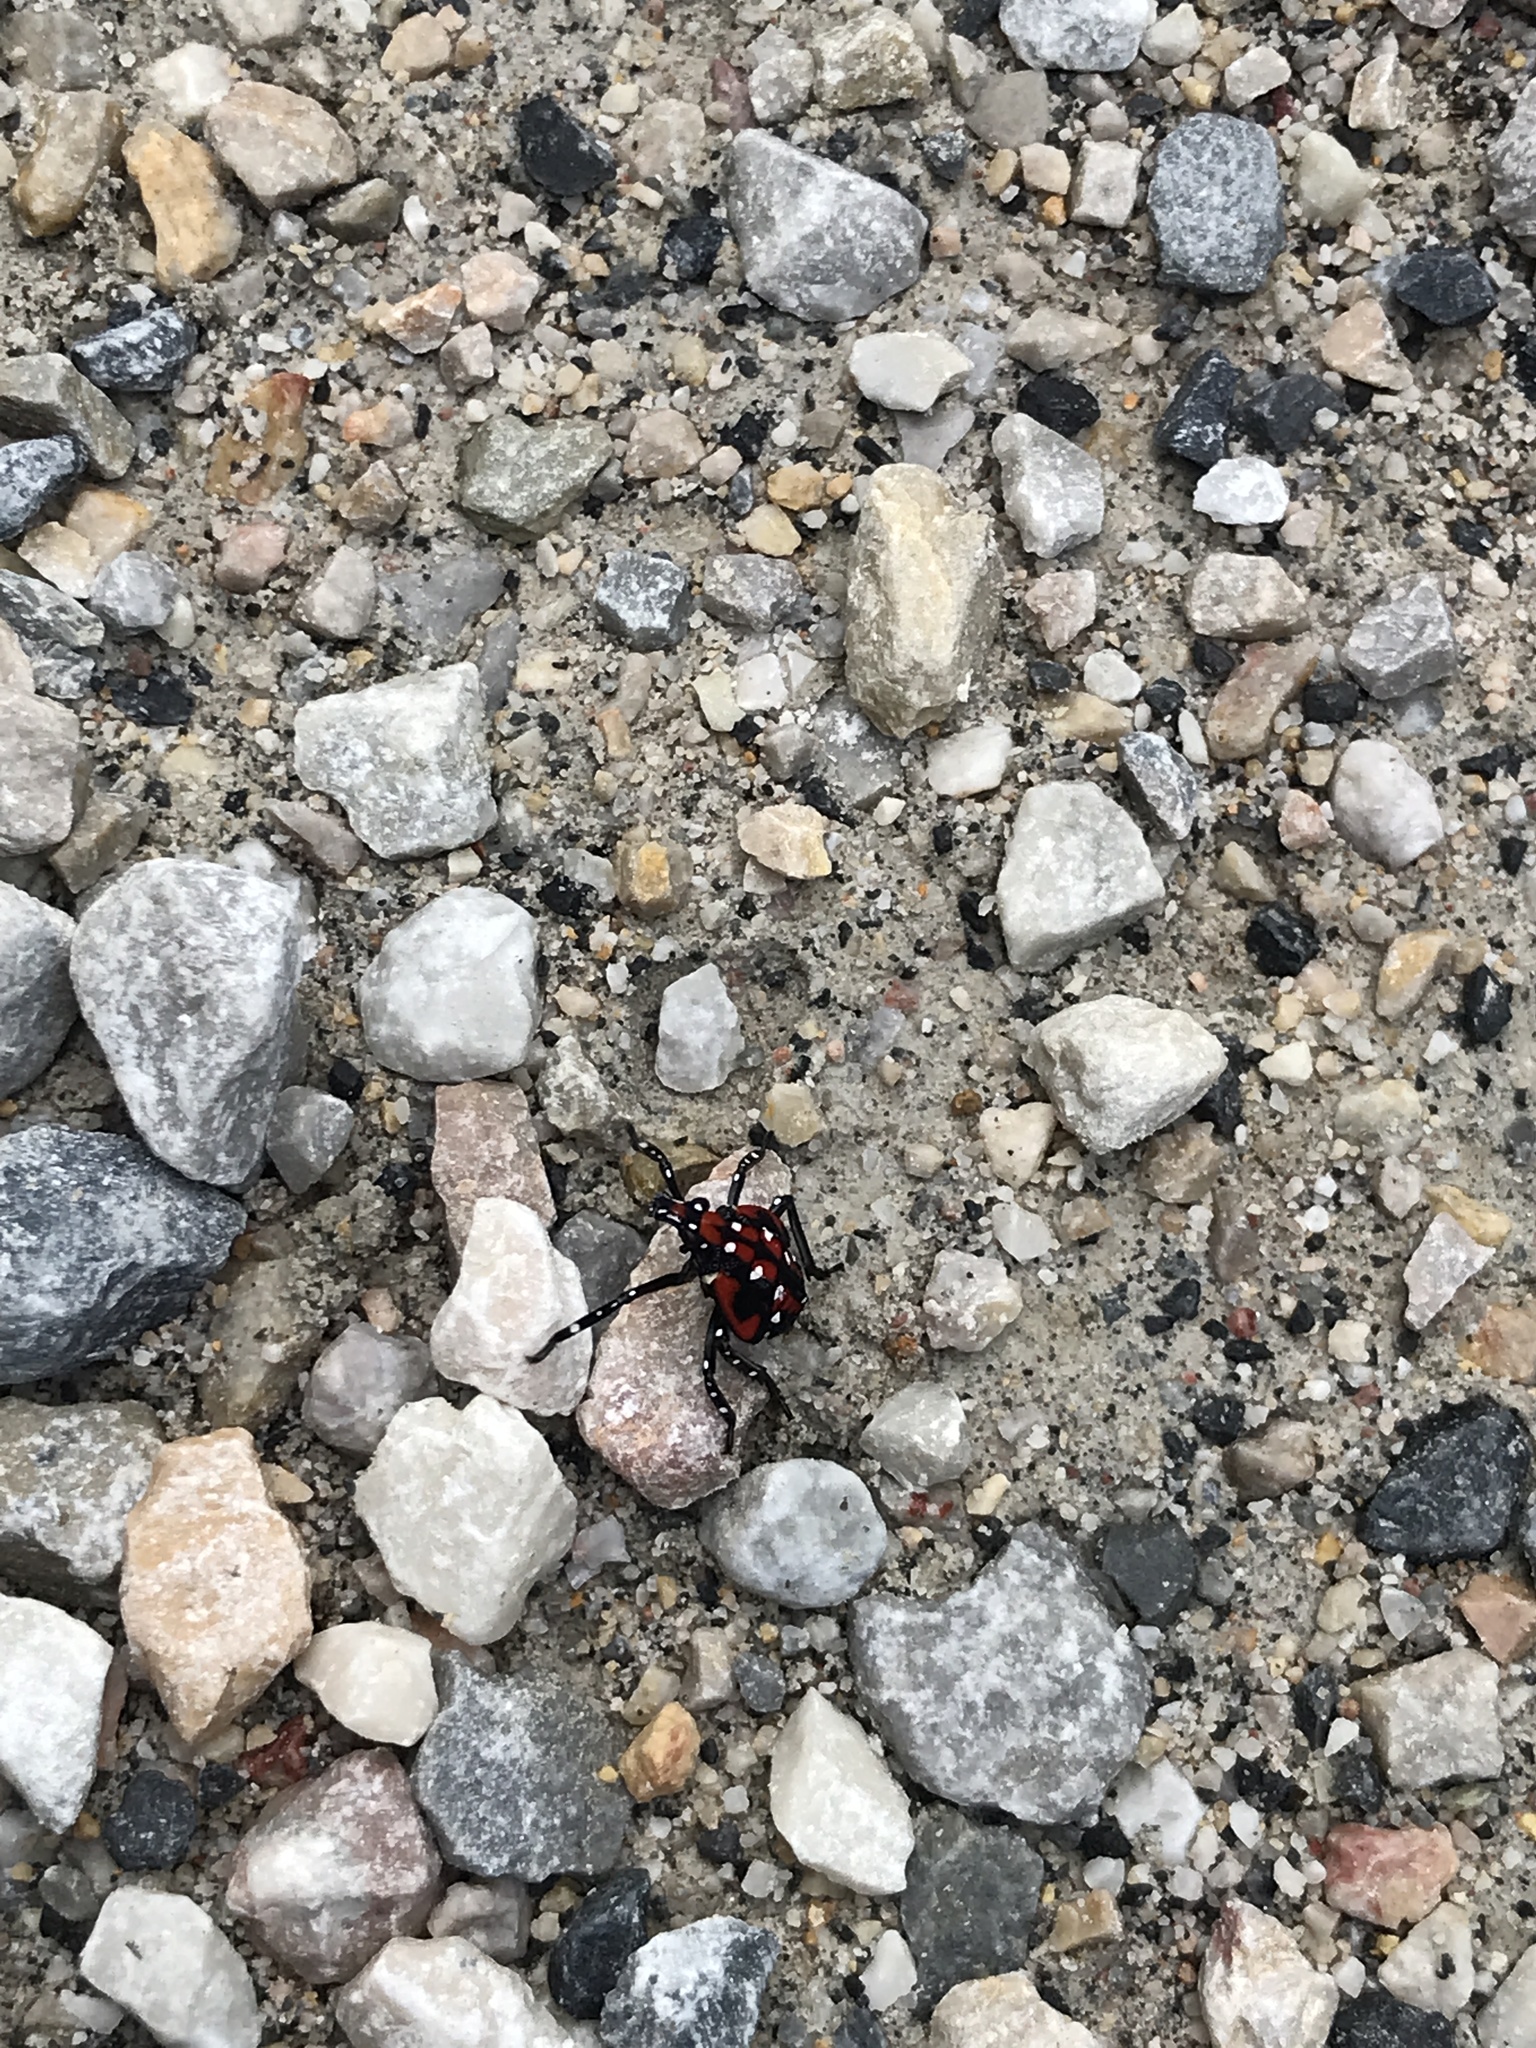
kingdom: Animalia
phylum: Arthropoda
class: Insecta
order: Hemiptera
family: Fulgoridae
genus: Lycorma
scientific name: Lycorma delicatula
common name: Spotted lanternfly
